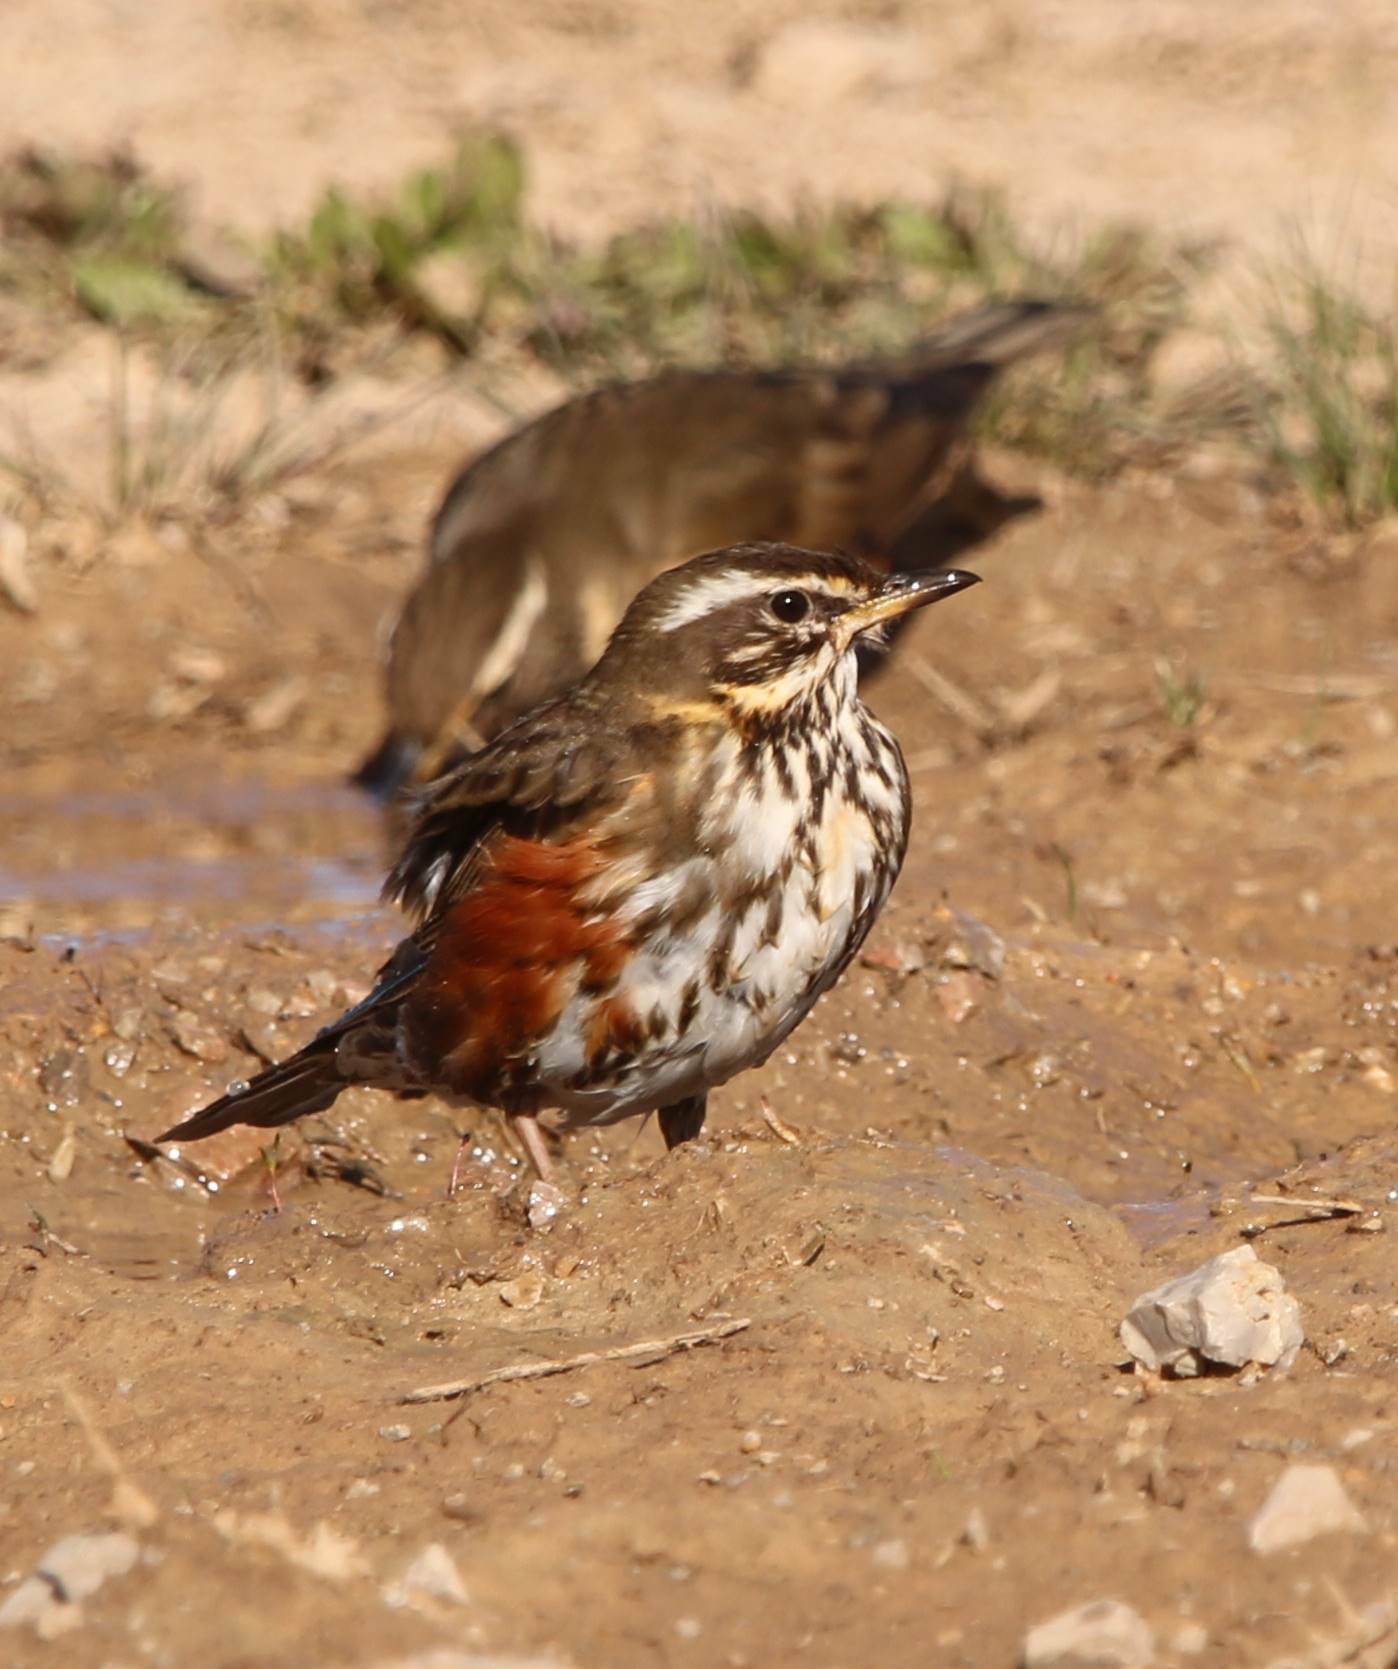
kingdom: Animalia
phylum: Chordata
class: Aves
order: Passeriformes
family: Turdidae
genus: Turdus
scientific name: Turdus iliacus
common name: Redwing
